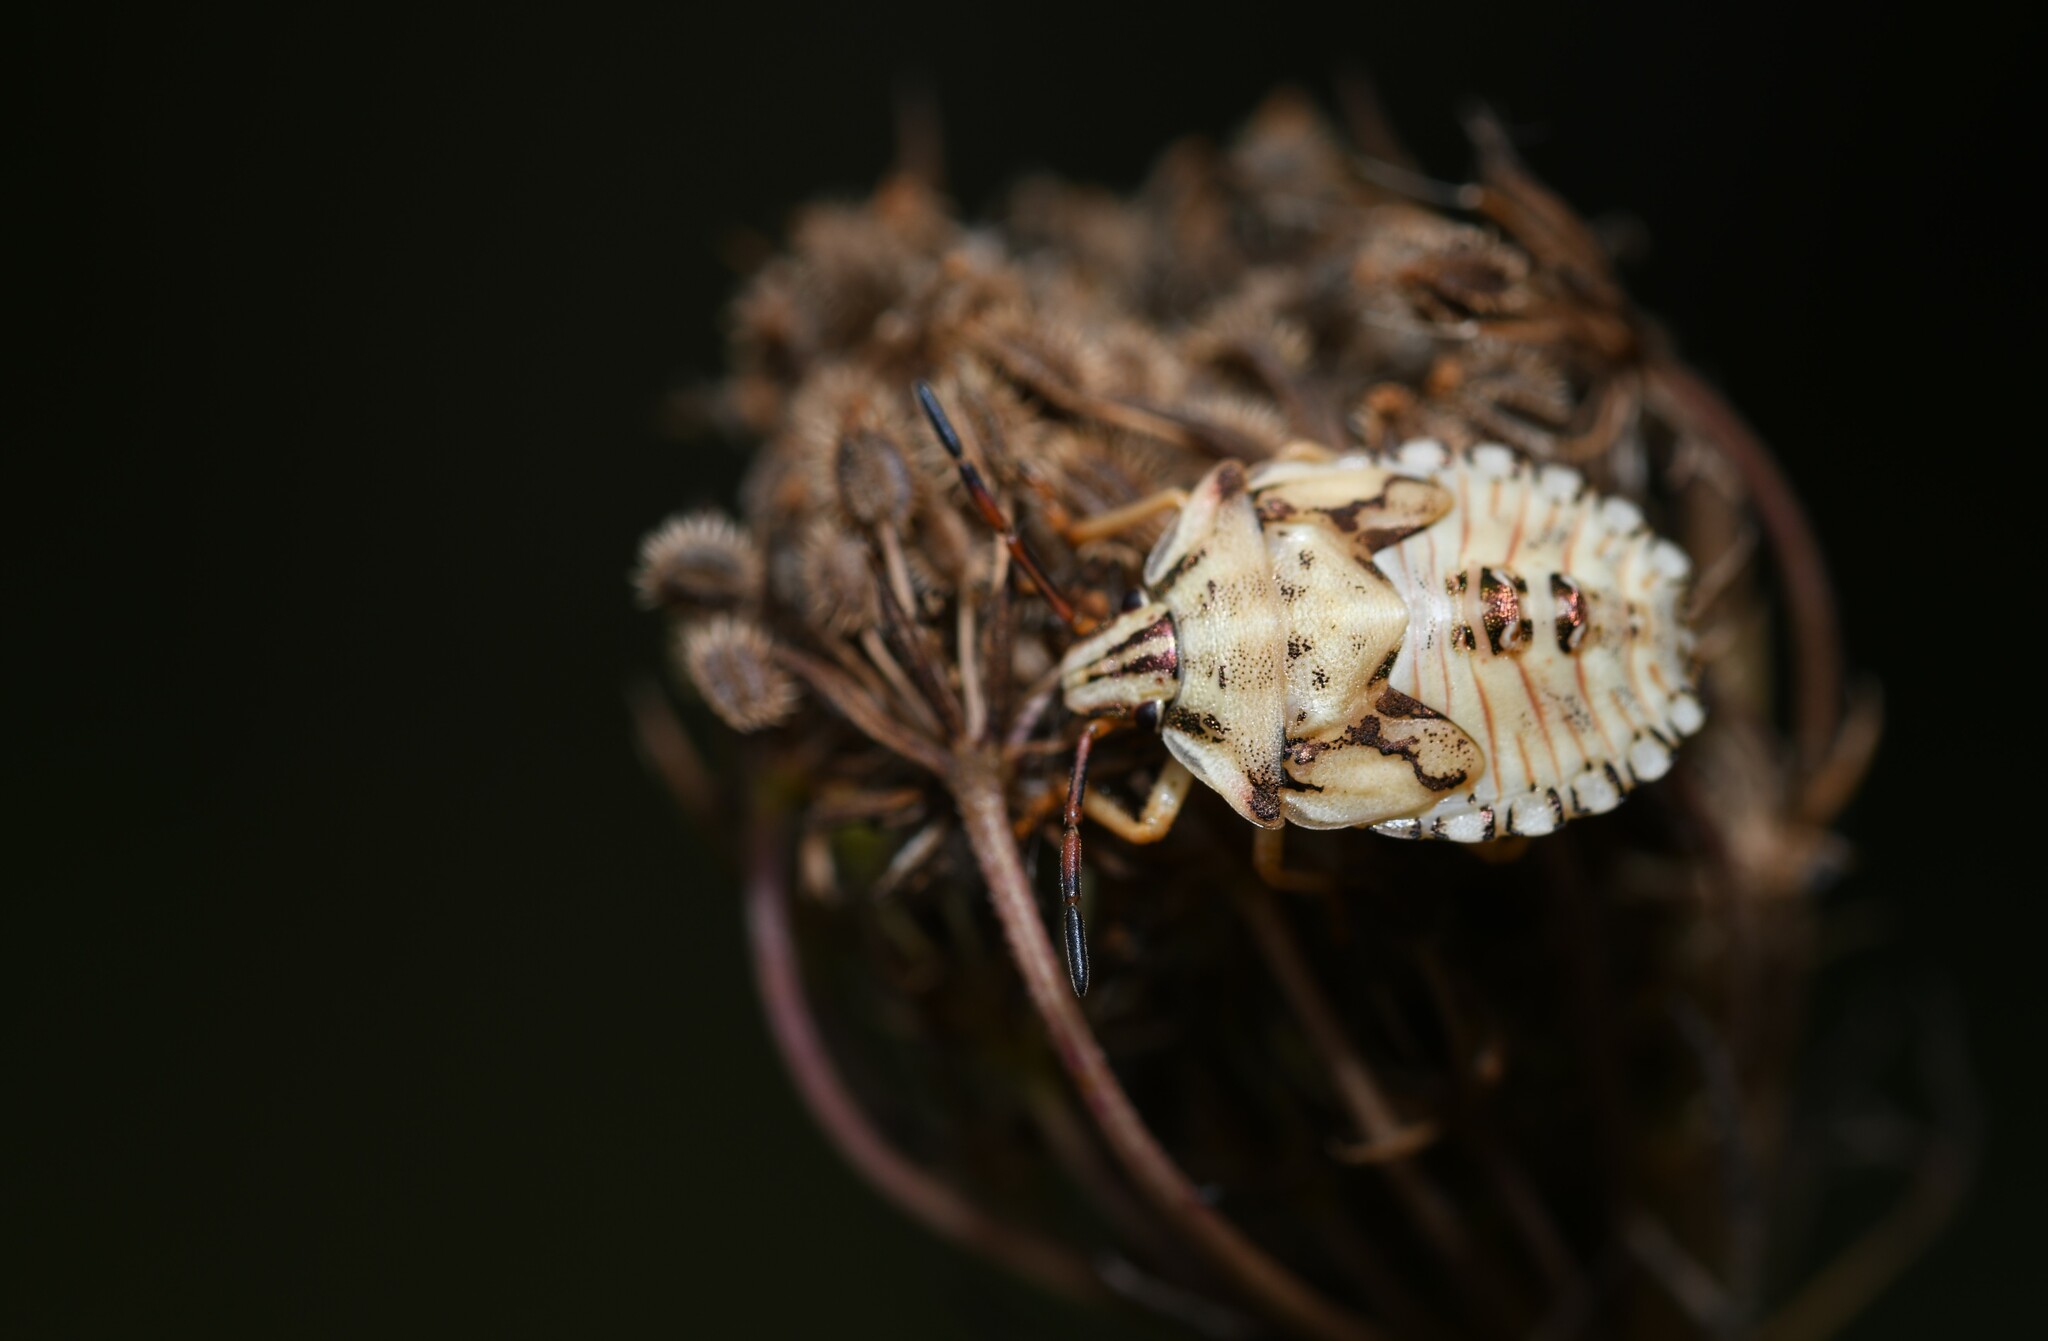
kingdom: Animalia
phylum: Arthropoda
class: Insecta
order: Hemiptera
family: Pentatomidae
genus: Carpocoris
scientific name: Carpocoris mediterraneus
